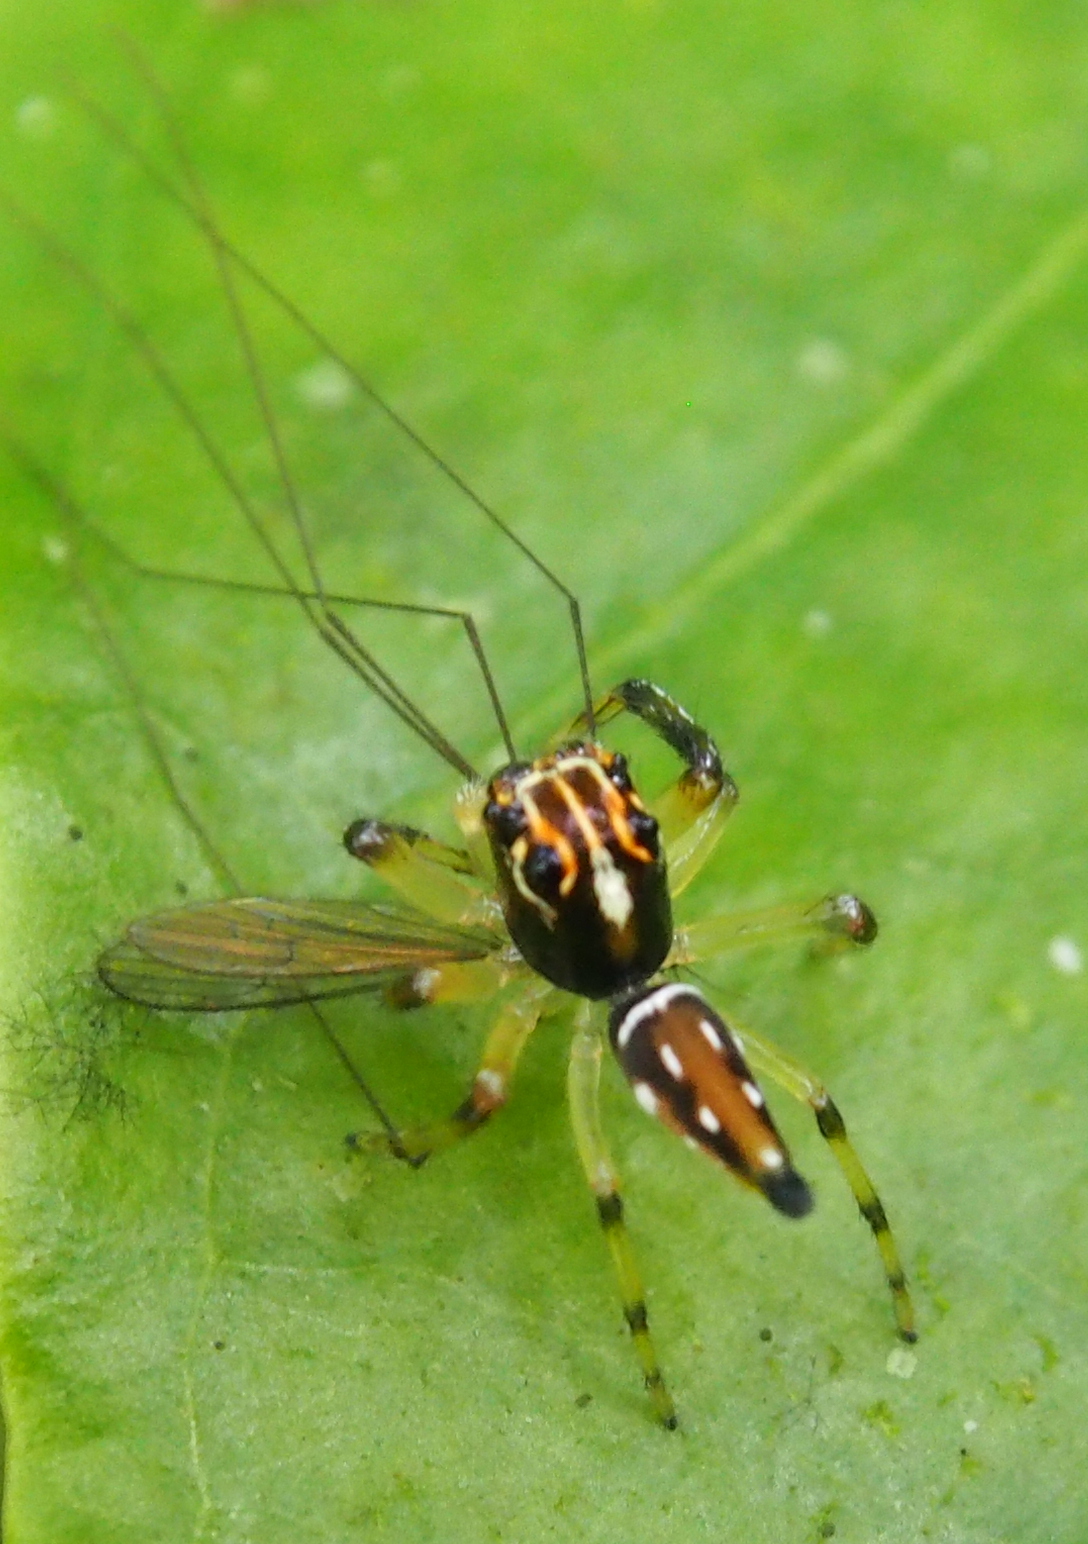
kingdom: Animalia
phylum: Arthropoda
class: Arachnida
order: Araneae
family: Salticidae
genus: Hypaeus
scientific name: Hypaeus benignus
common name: Jumping spiders
